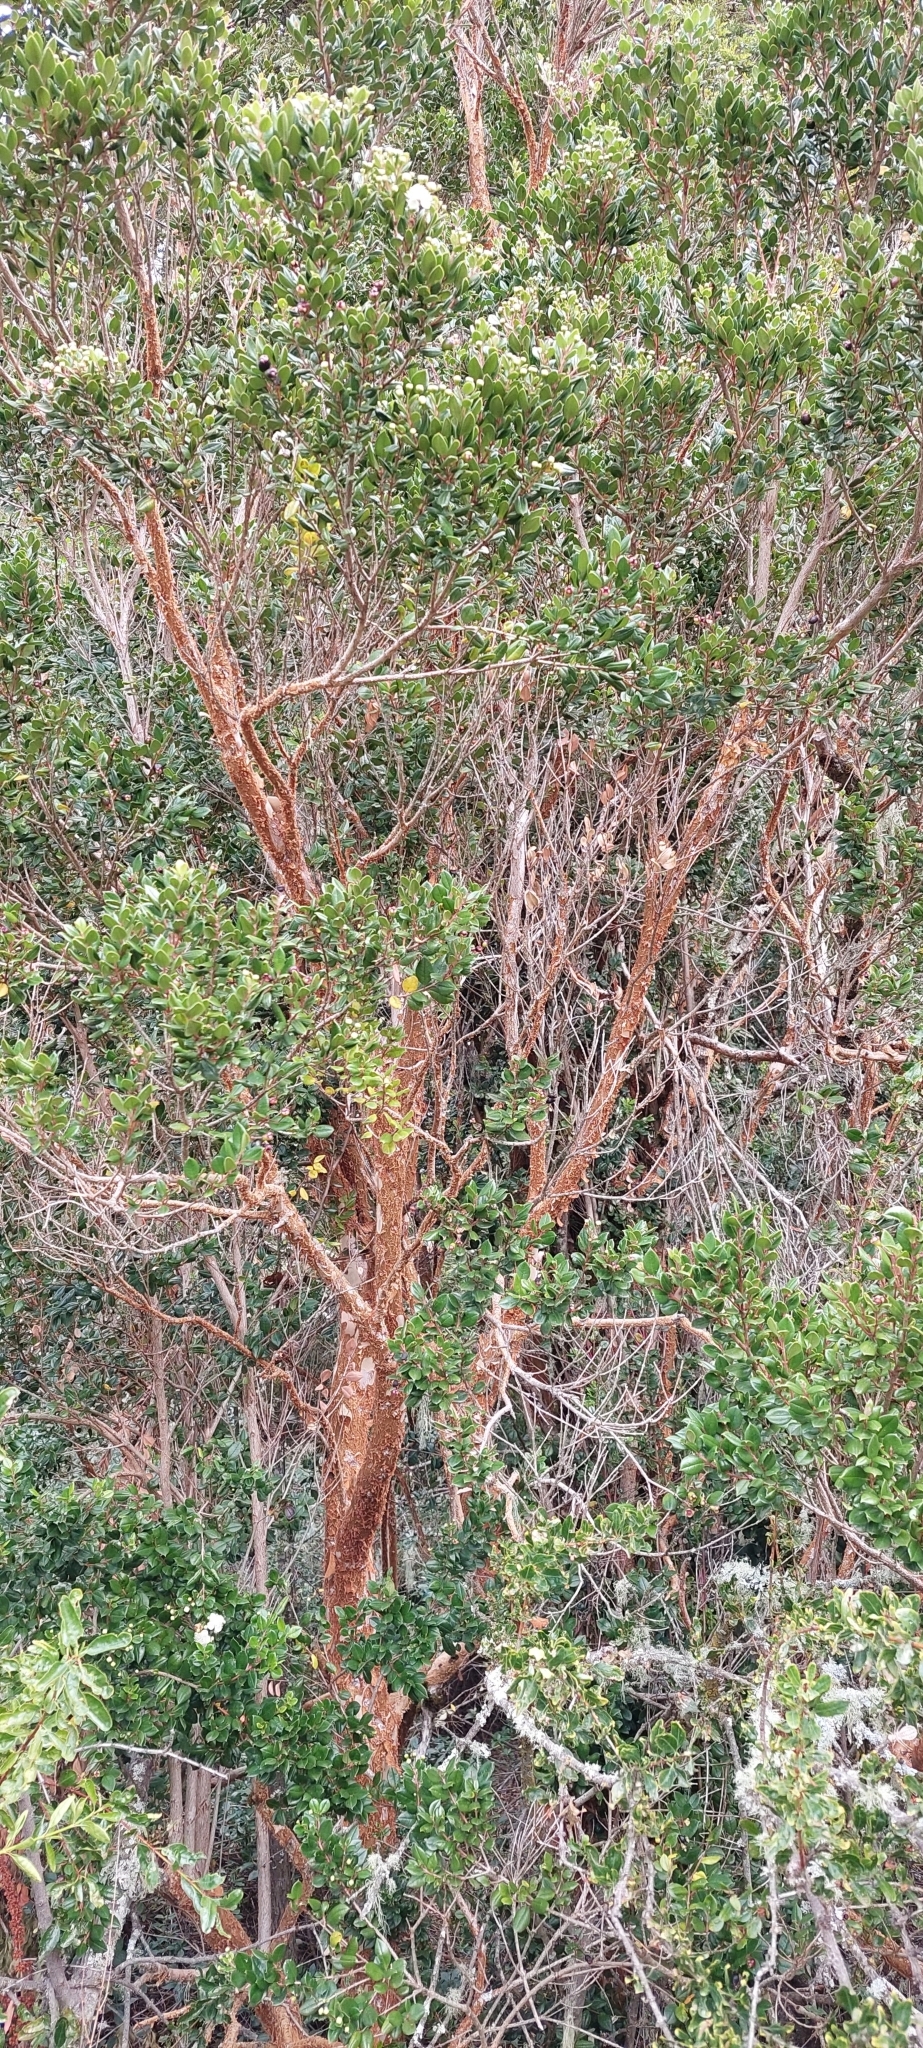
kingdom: Plantae
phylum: Tracheophyta
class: Magnoliopsida
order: Myrtales
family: Myrtaceae
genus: Luma
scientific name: Luma apiculata
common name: Chilean myrtle
